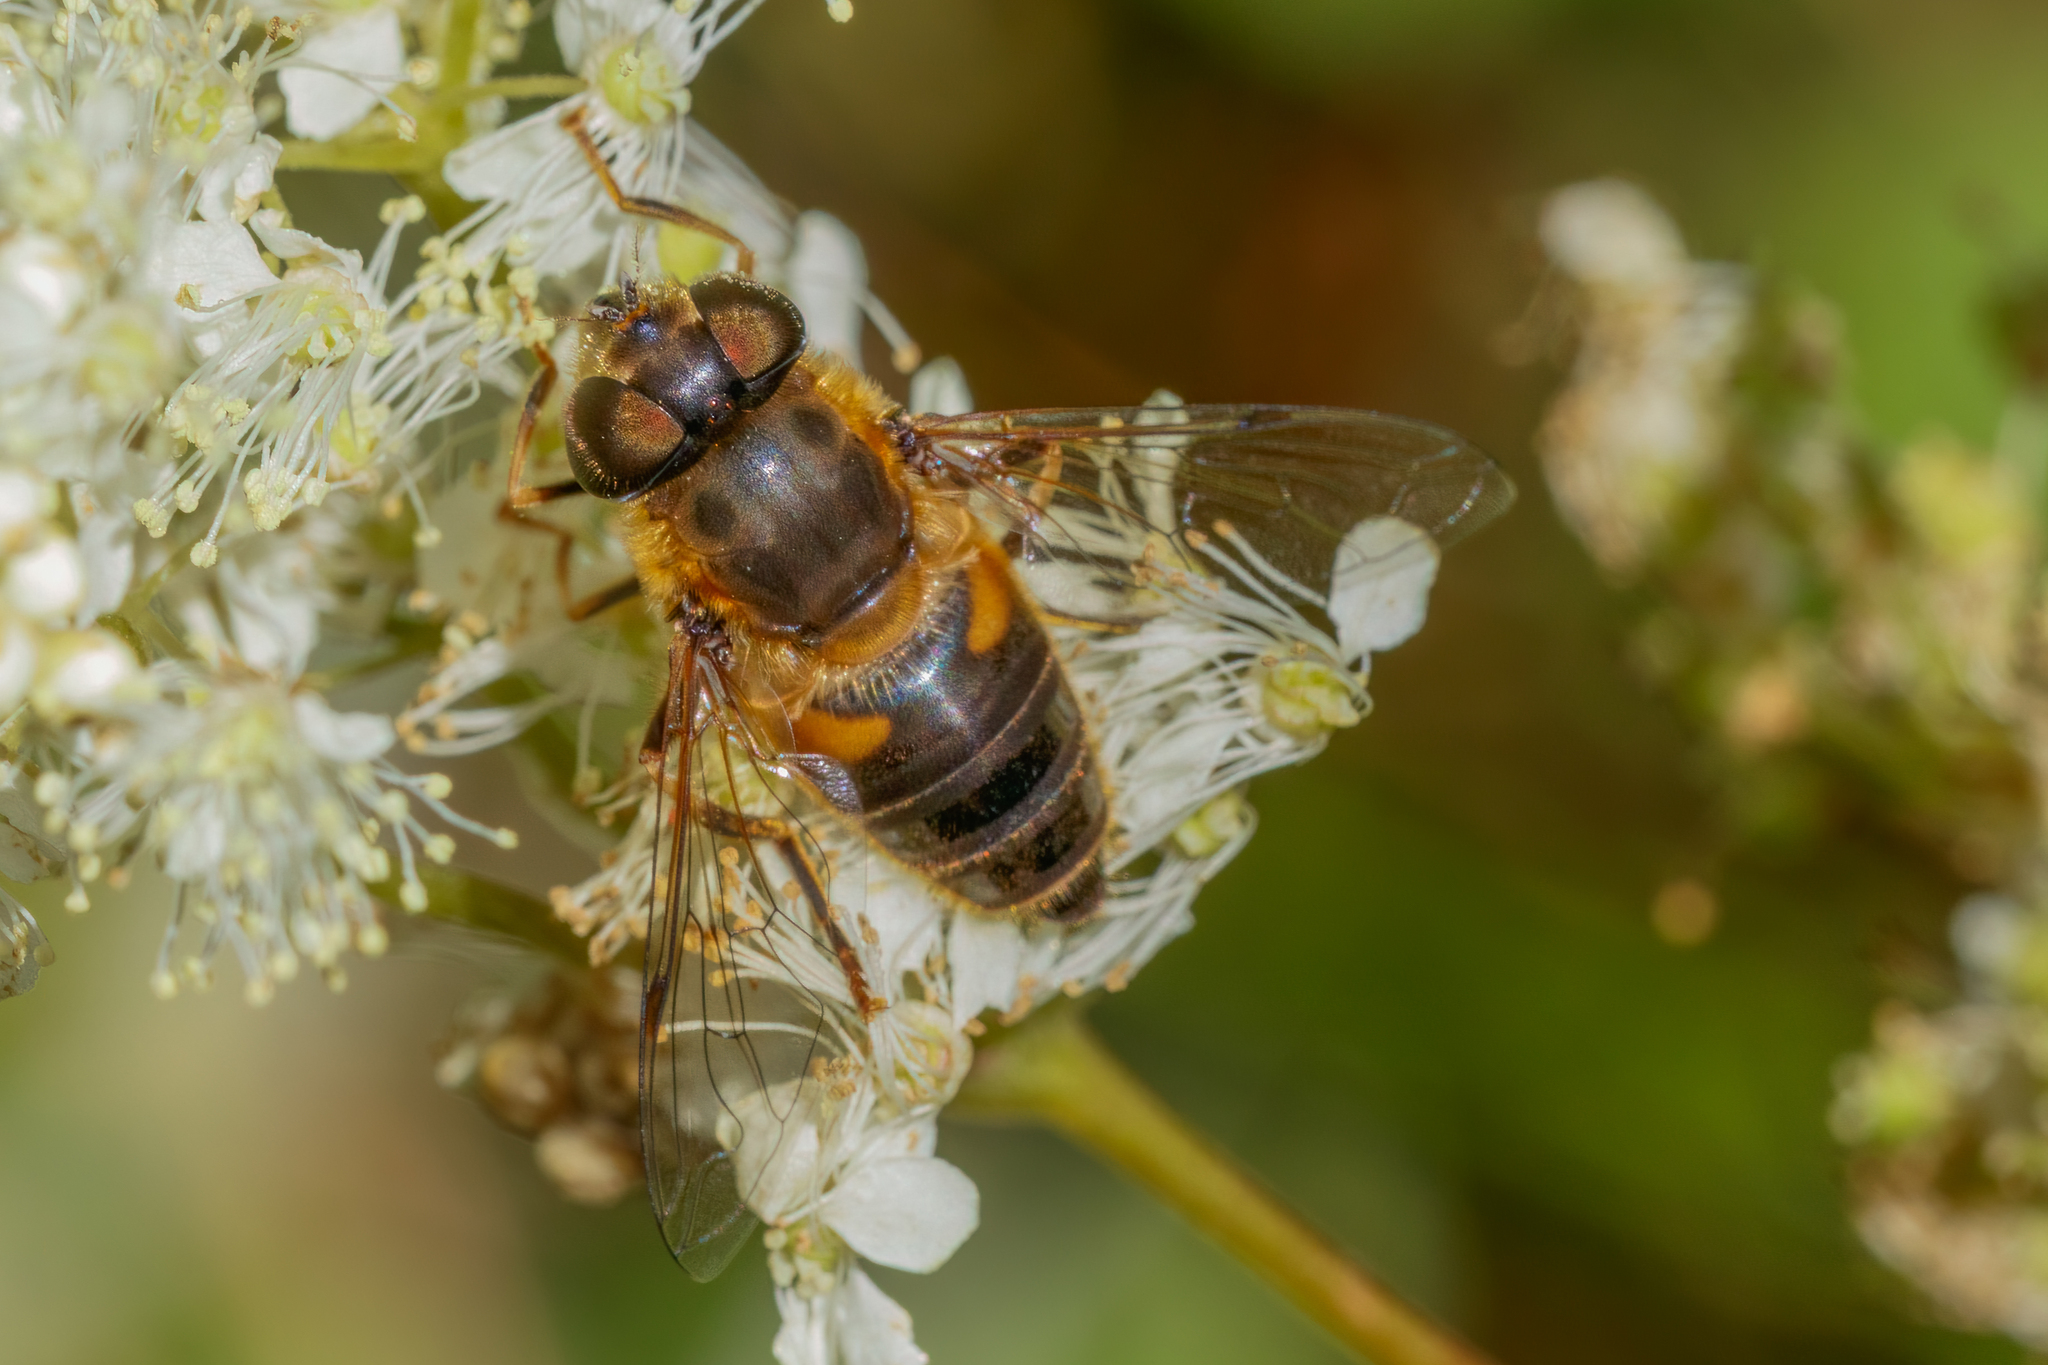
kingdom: Animalia
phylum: Arthropoda
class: Insecta
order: Diptera
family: Syrphidae
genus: Eristalis
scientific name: Eristalis pertinax
